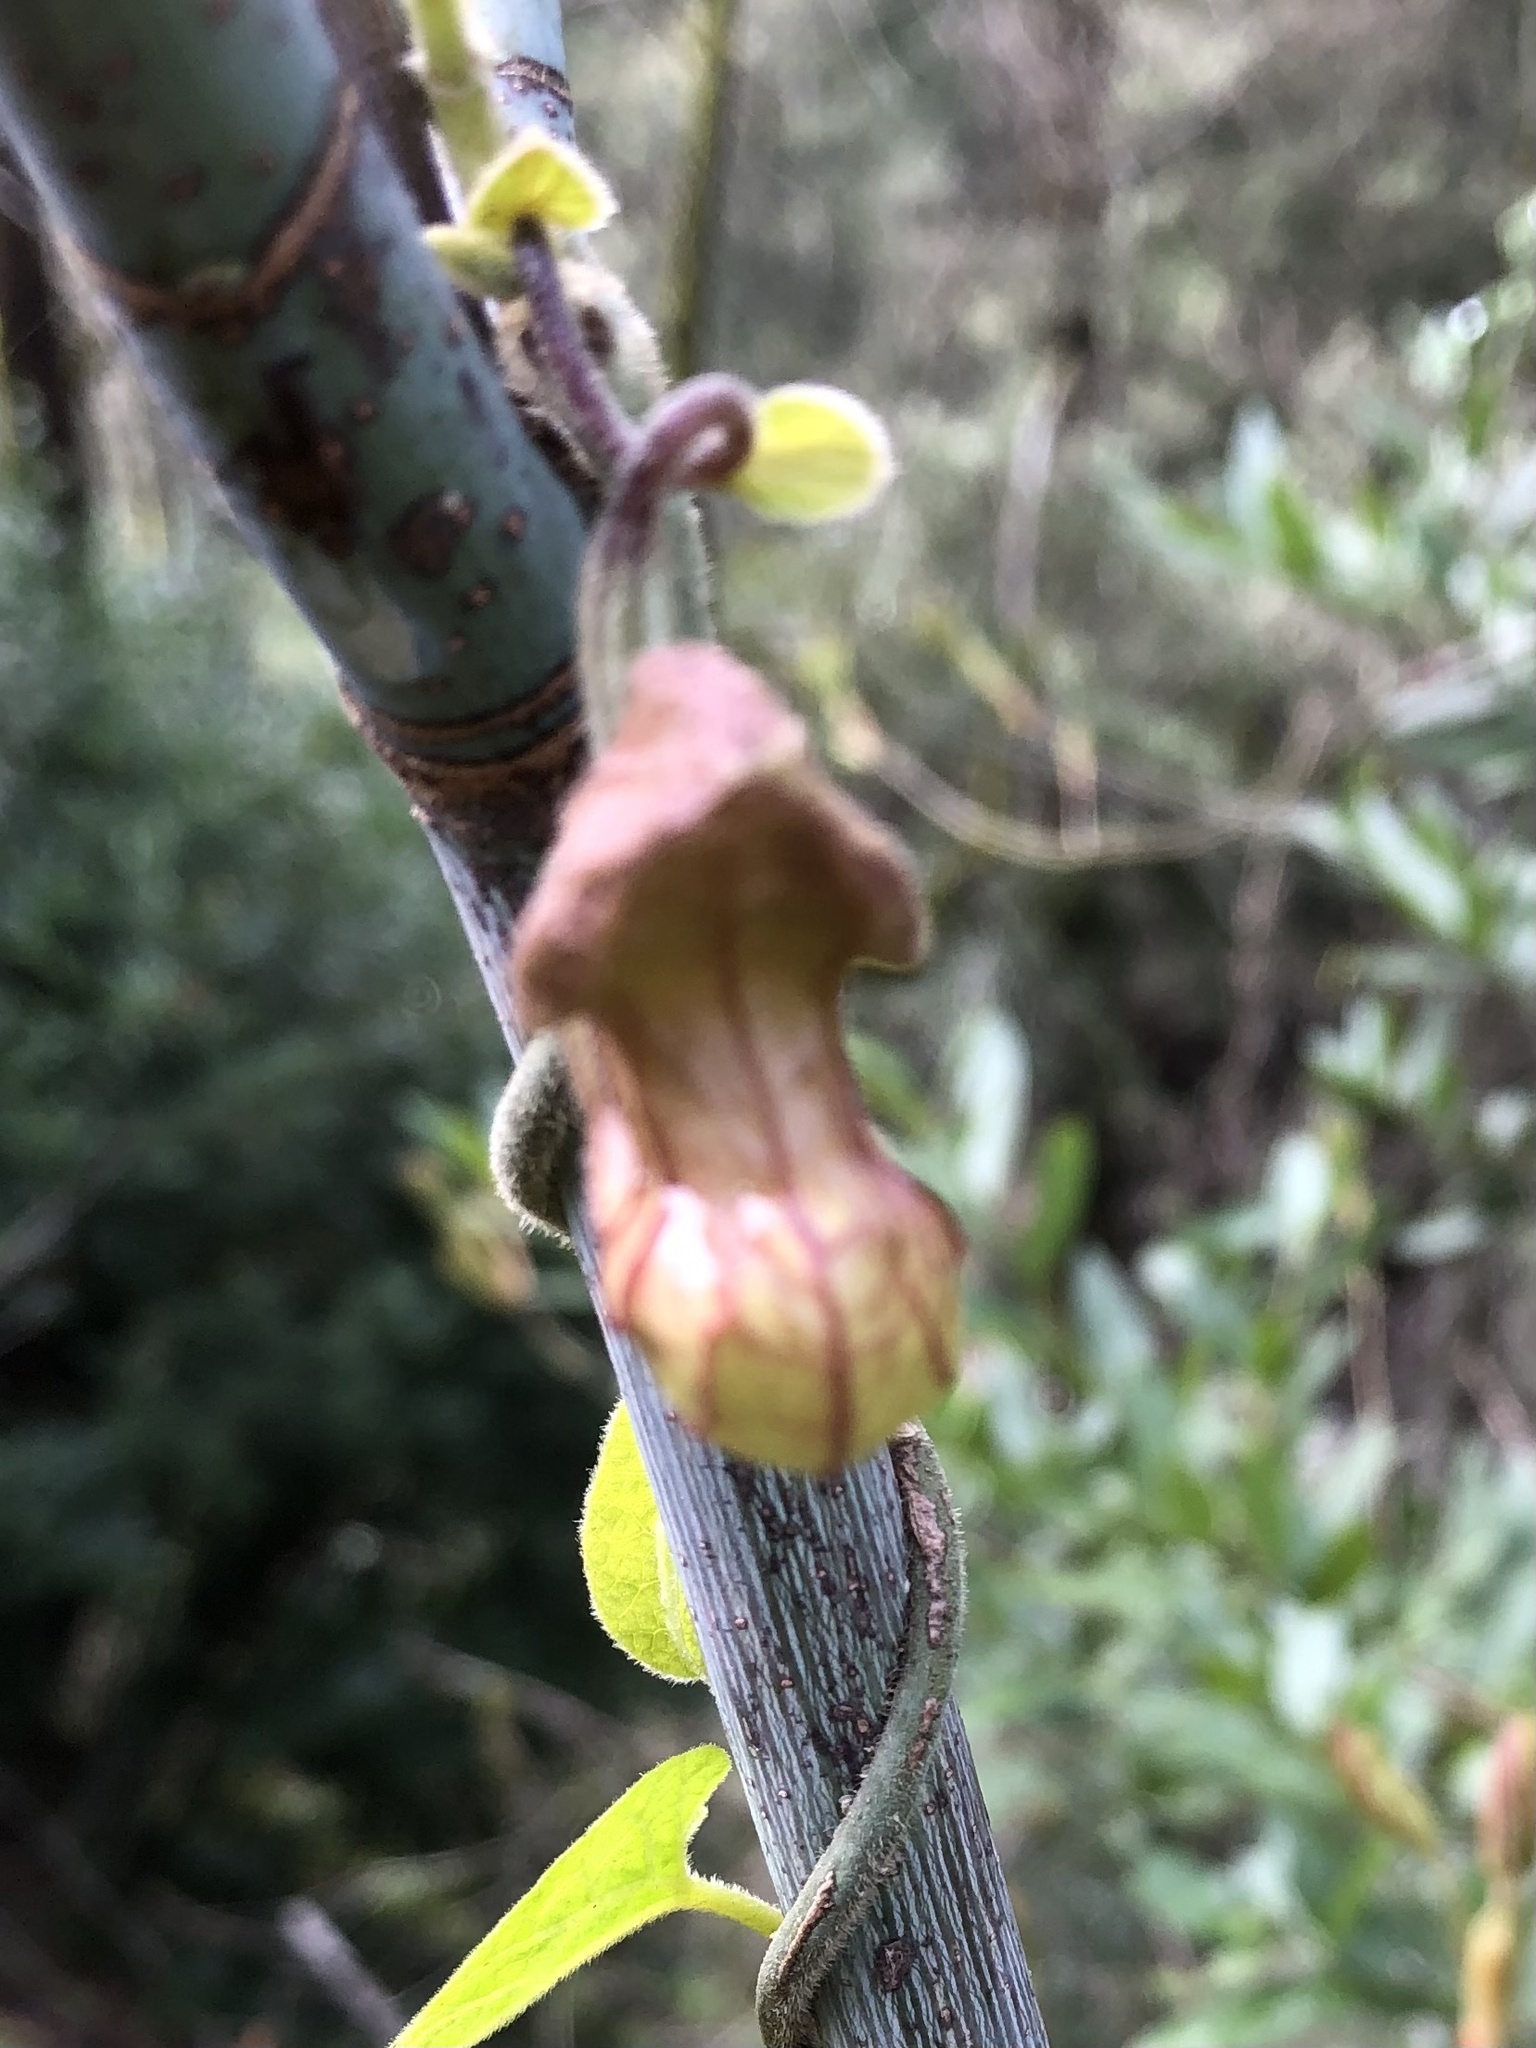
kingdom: Plantae
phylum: Tracheophyta
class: Magnoliopsida
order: Piperales
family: Aristolochiaceae
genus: Isotrema
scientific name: Isotrema californicum
